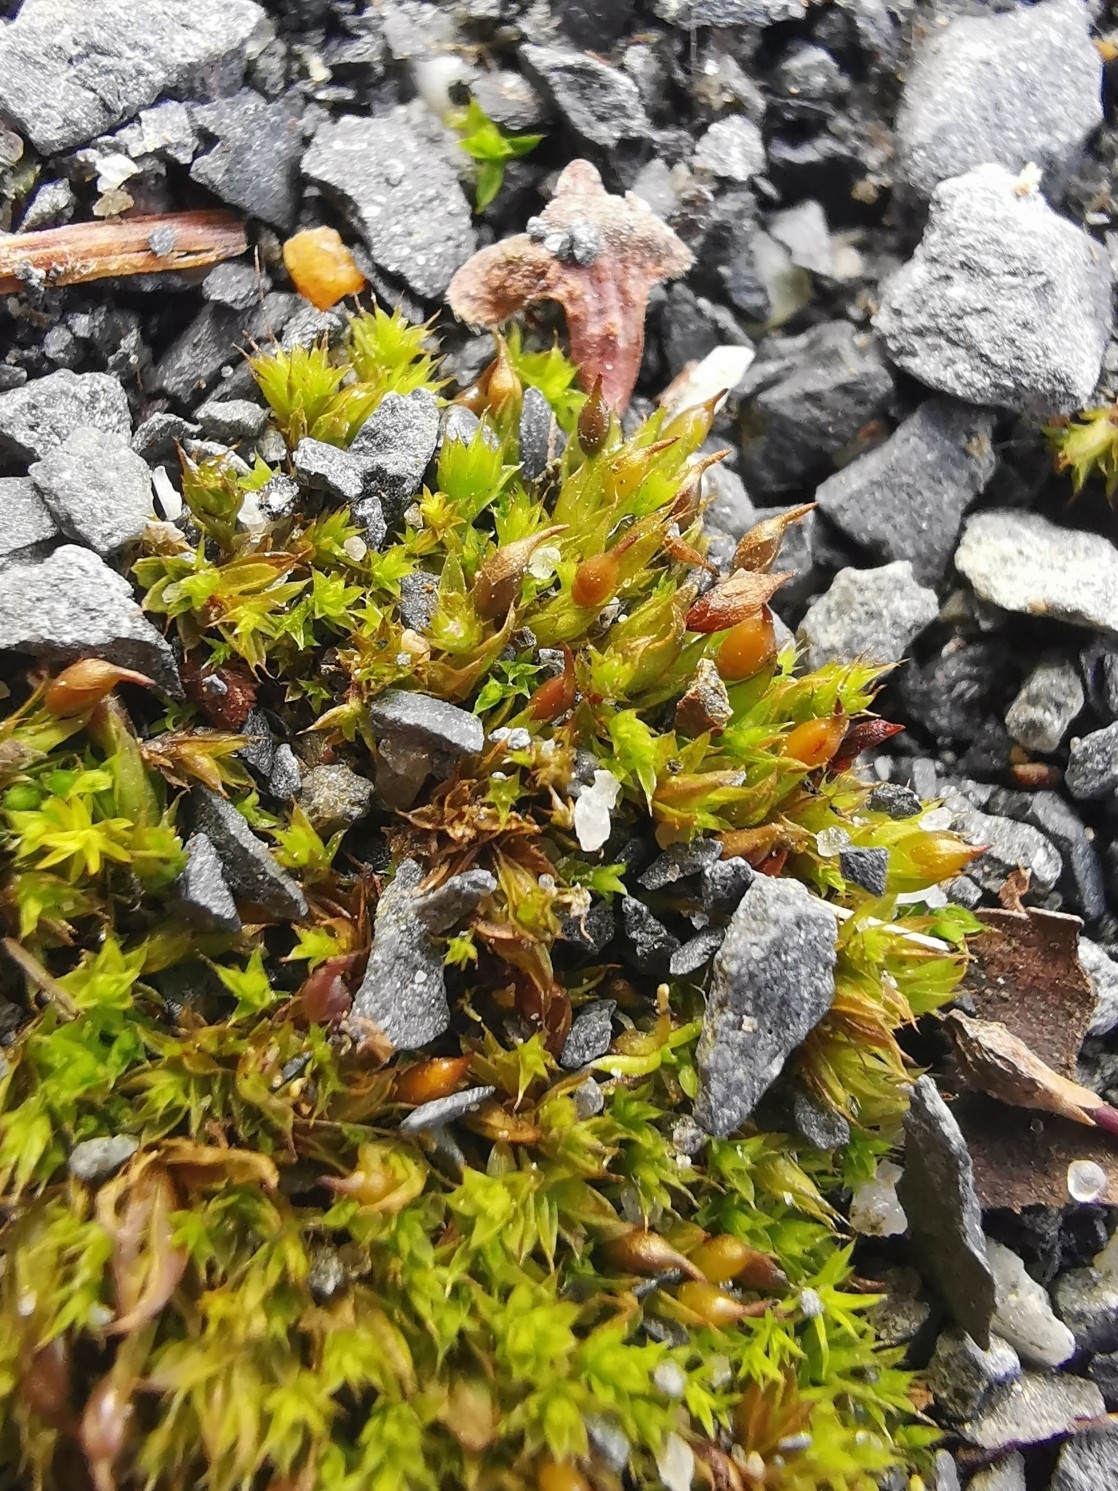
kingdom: Plantae
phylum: Bryophyta
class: Bryopsida
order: Pottiales
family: Pottiaceae
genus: Tortula
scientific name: Tortula protobryoides
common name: Tall pottia
